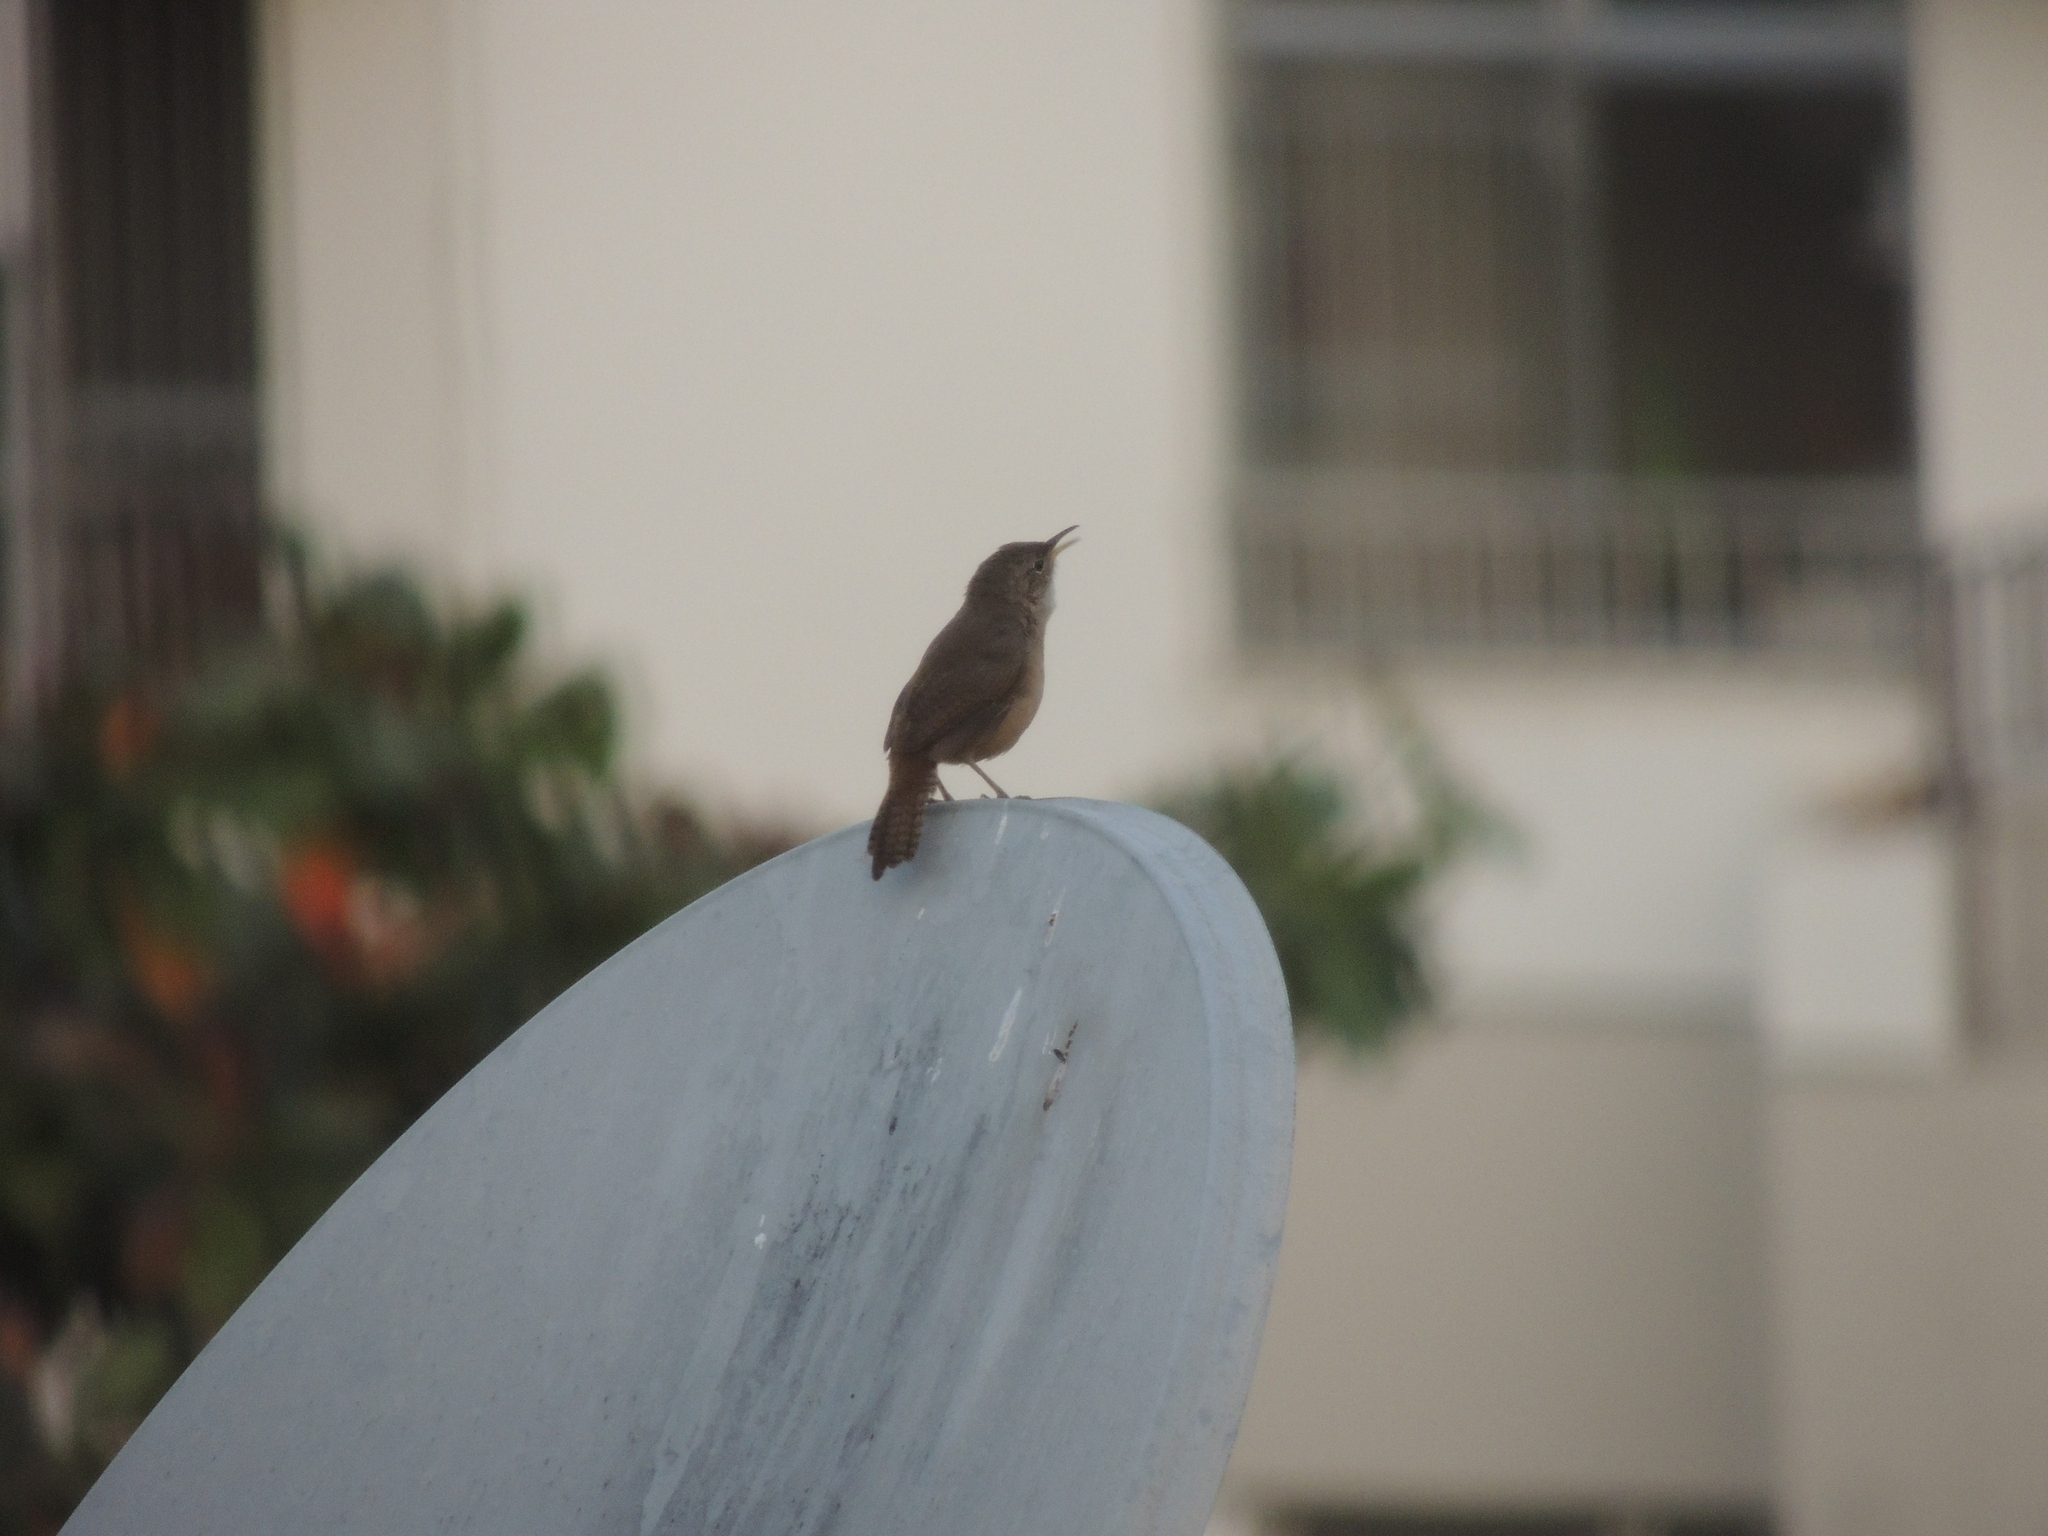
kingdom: Animalia
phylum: Chordata
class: Aves
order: Passeriformes
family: Troglodytidae
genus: Troglodytes
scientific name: Troglodytes aedon
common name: House wren
